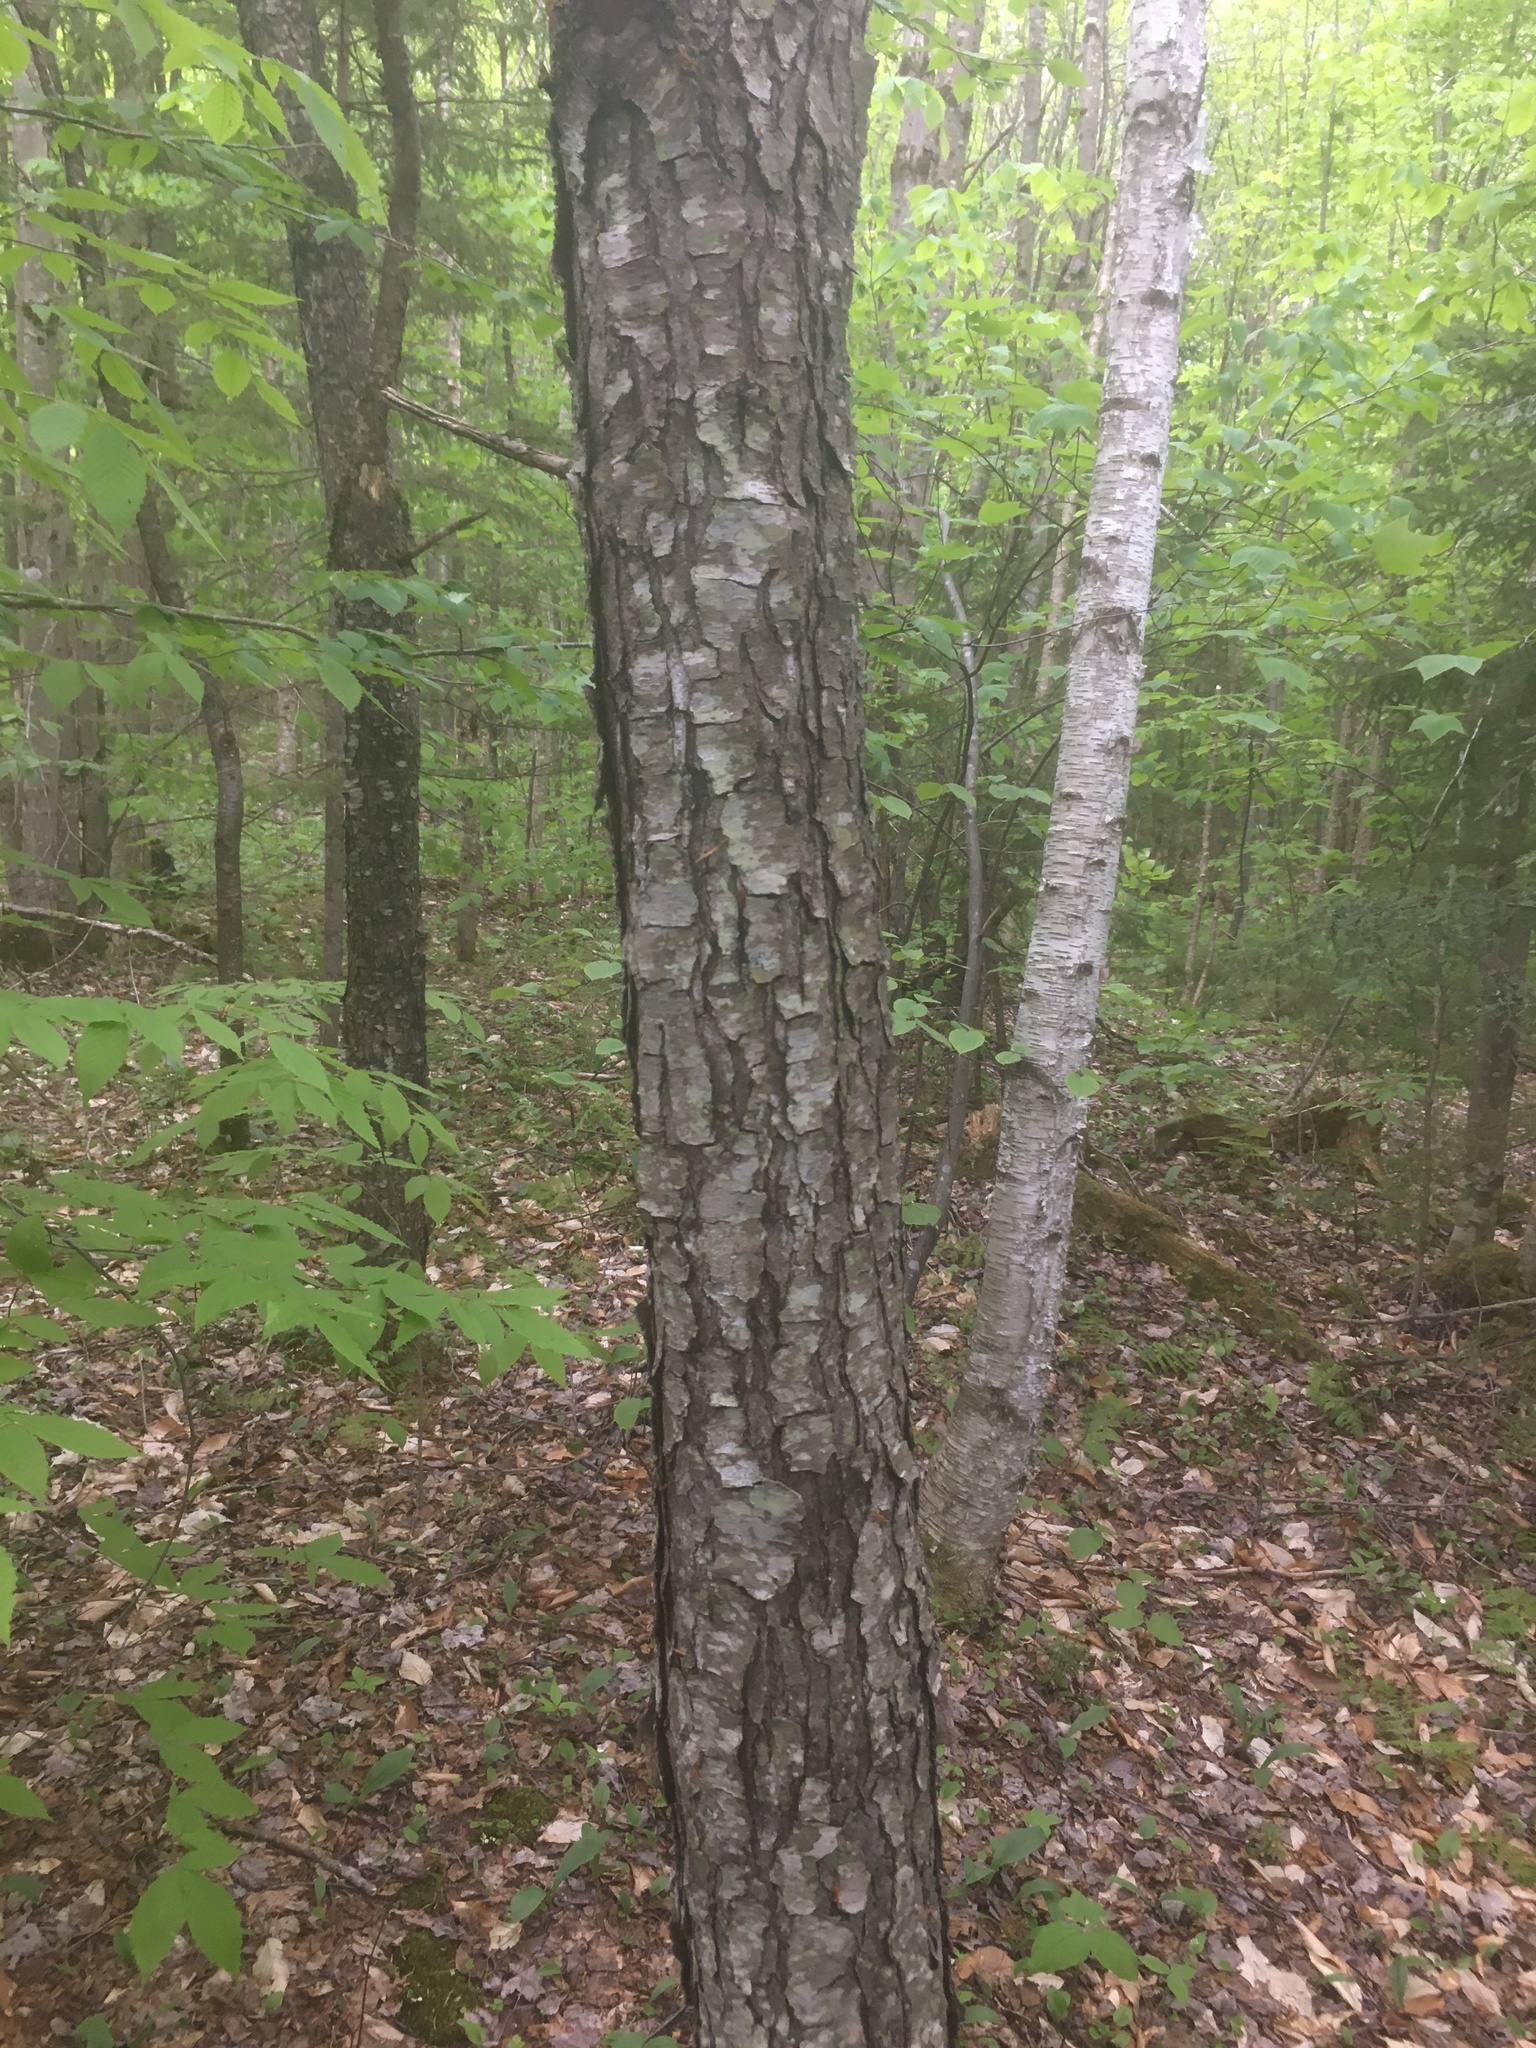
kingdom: Plantae
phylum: Tracheophyta
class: Magnoliopsida
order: Rosales
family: Rosaceae
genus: Prunus
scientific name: Prunus serotina
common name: Black cherry
